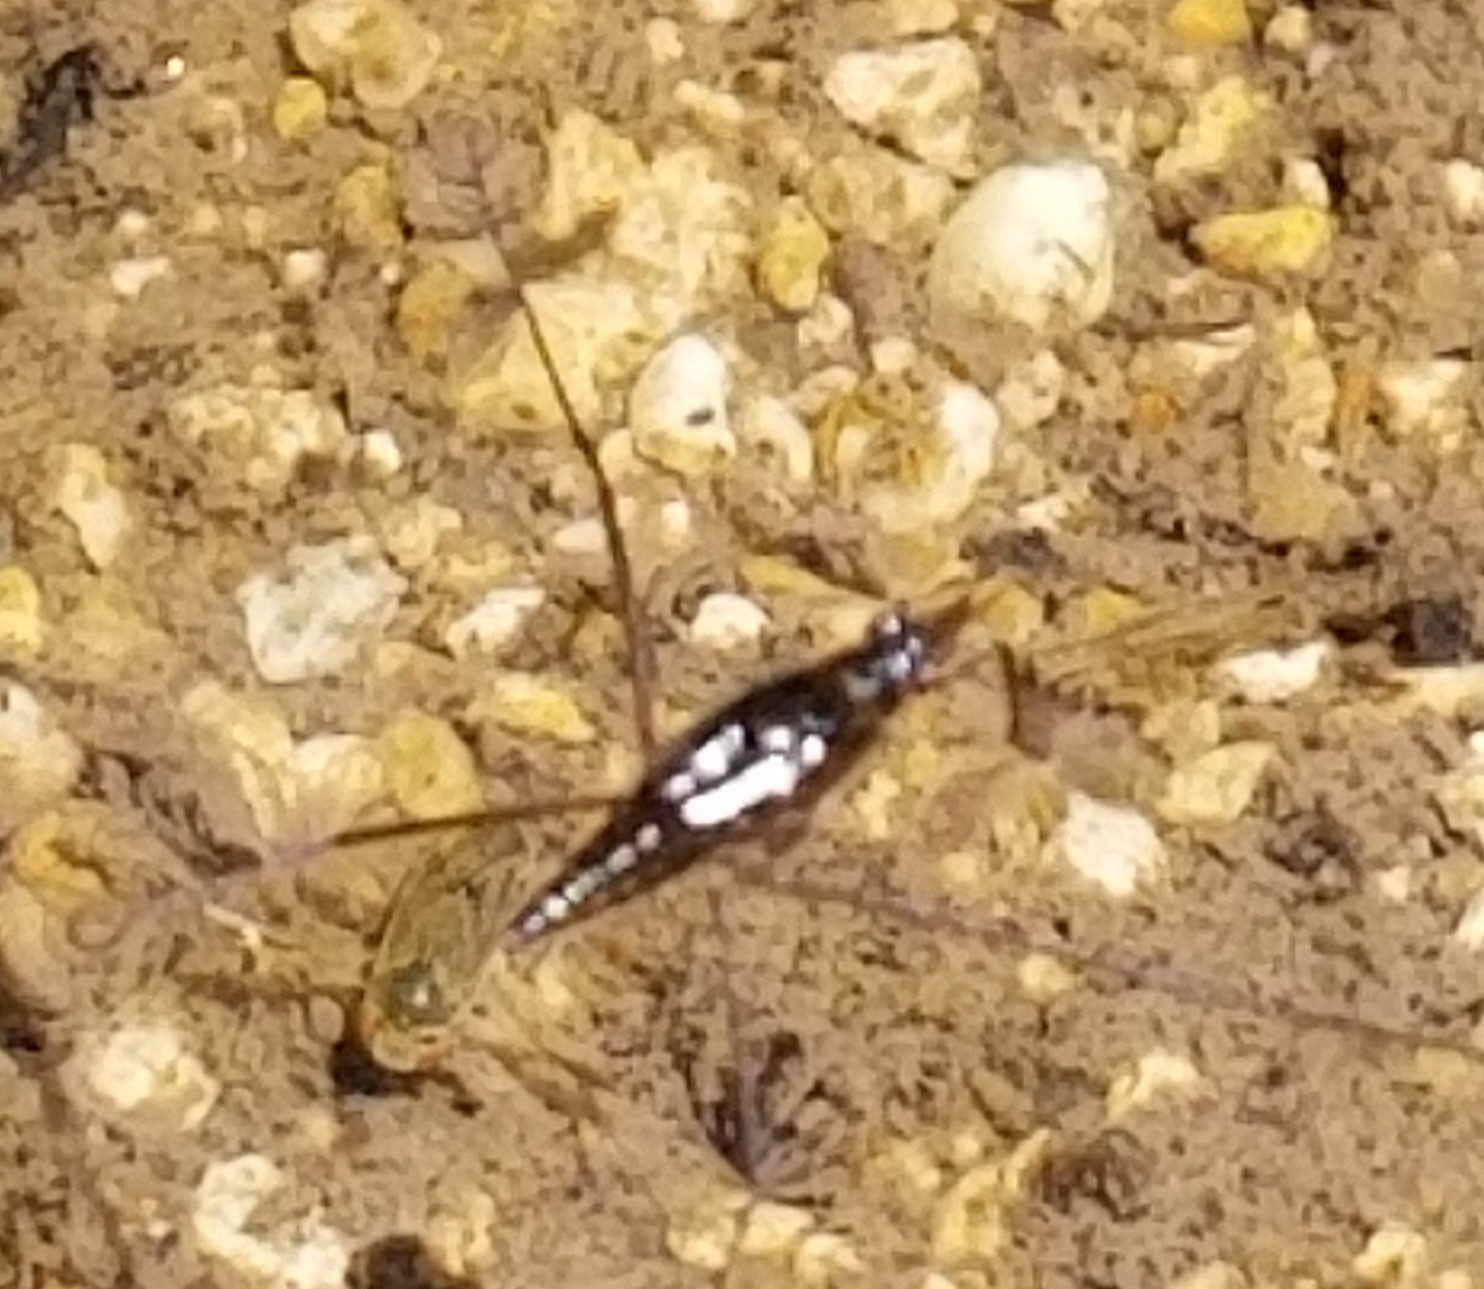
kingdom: Animalia
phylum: Arthropoda
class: Insecta
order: Hemiptera
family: Gerridae
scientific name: Gerridae
